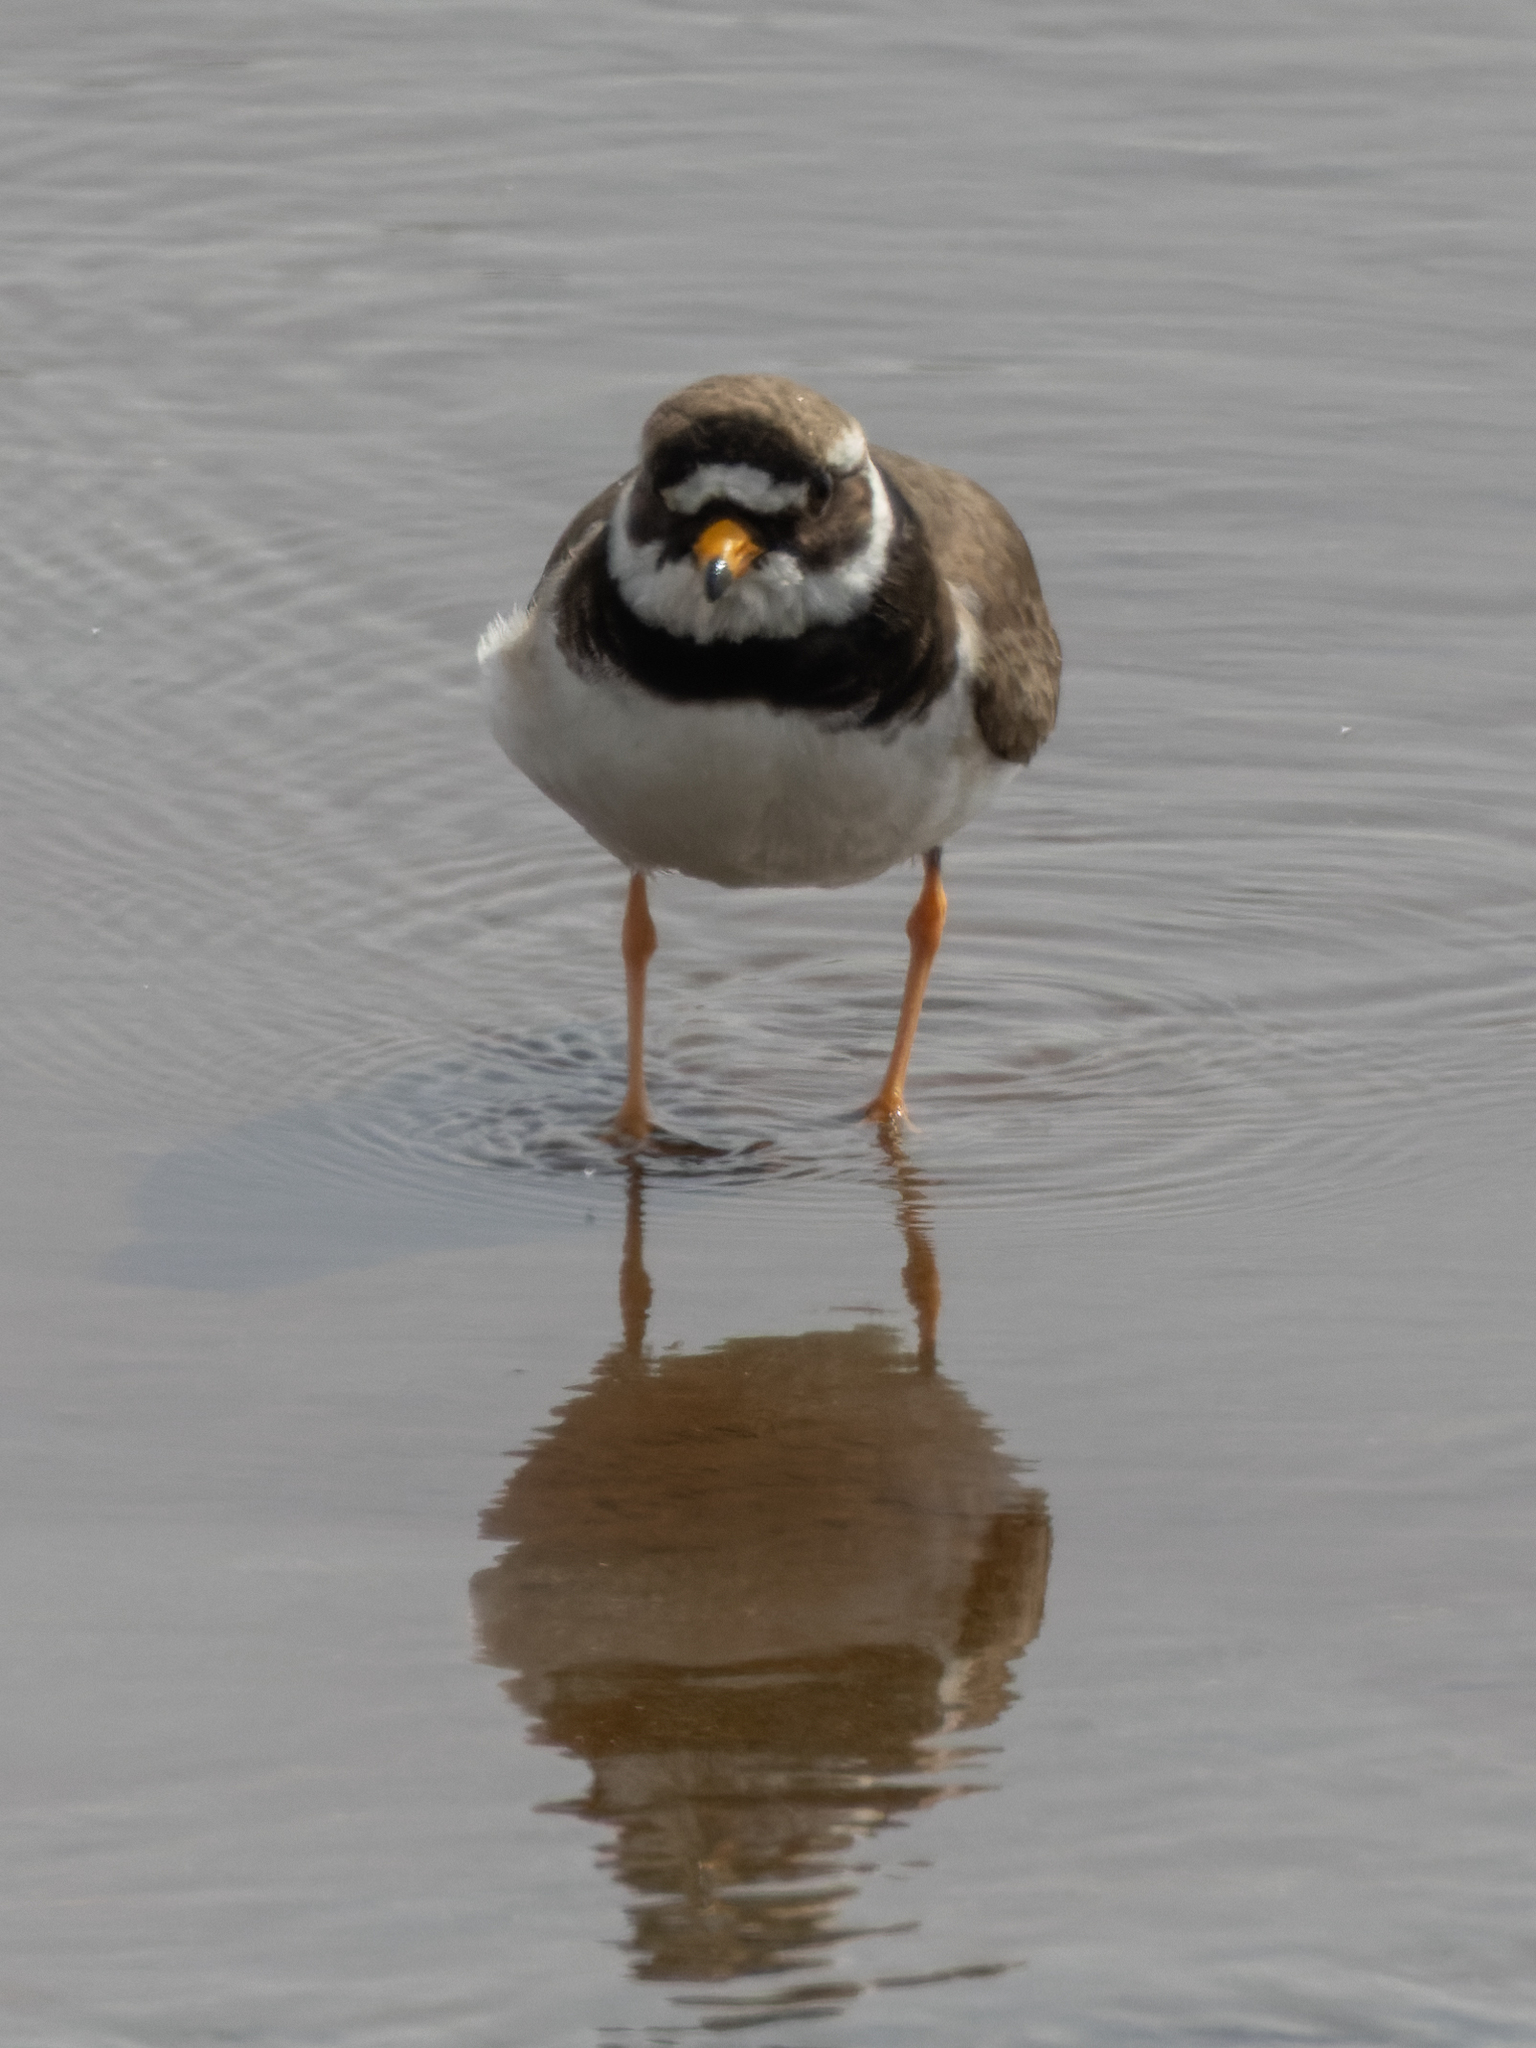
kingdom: Animalia
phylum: Chordata
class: Aves
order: Charadriiformes
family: Charadriidae
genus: Charadrius
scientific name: Charadrius hiaticula
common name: Common ringed plover
